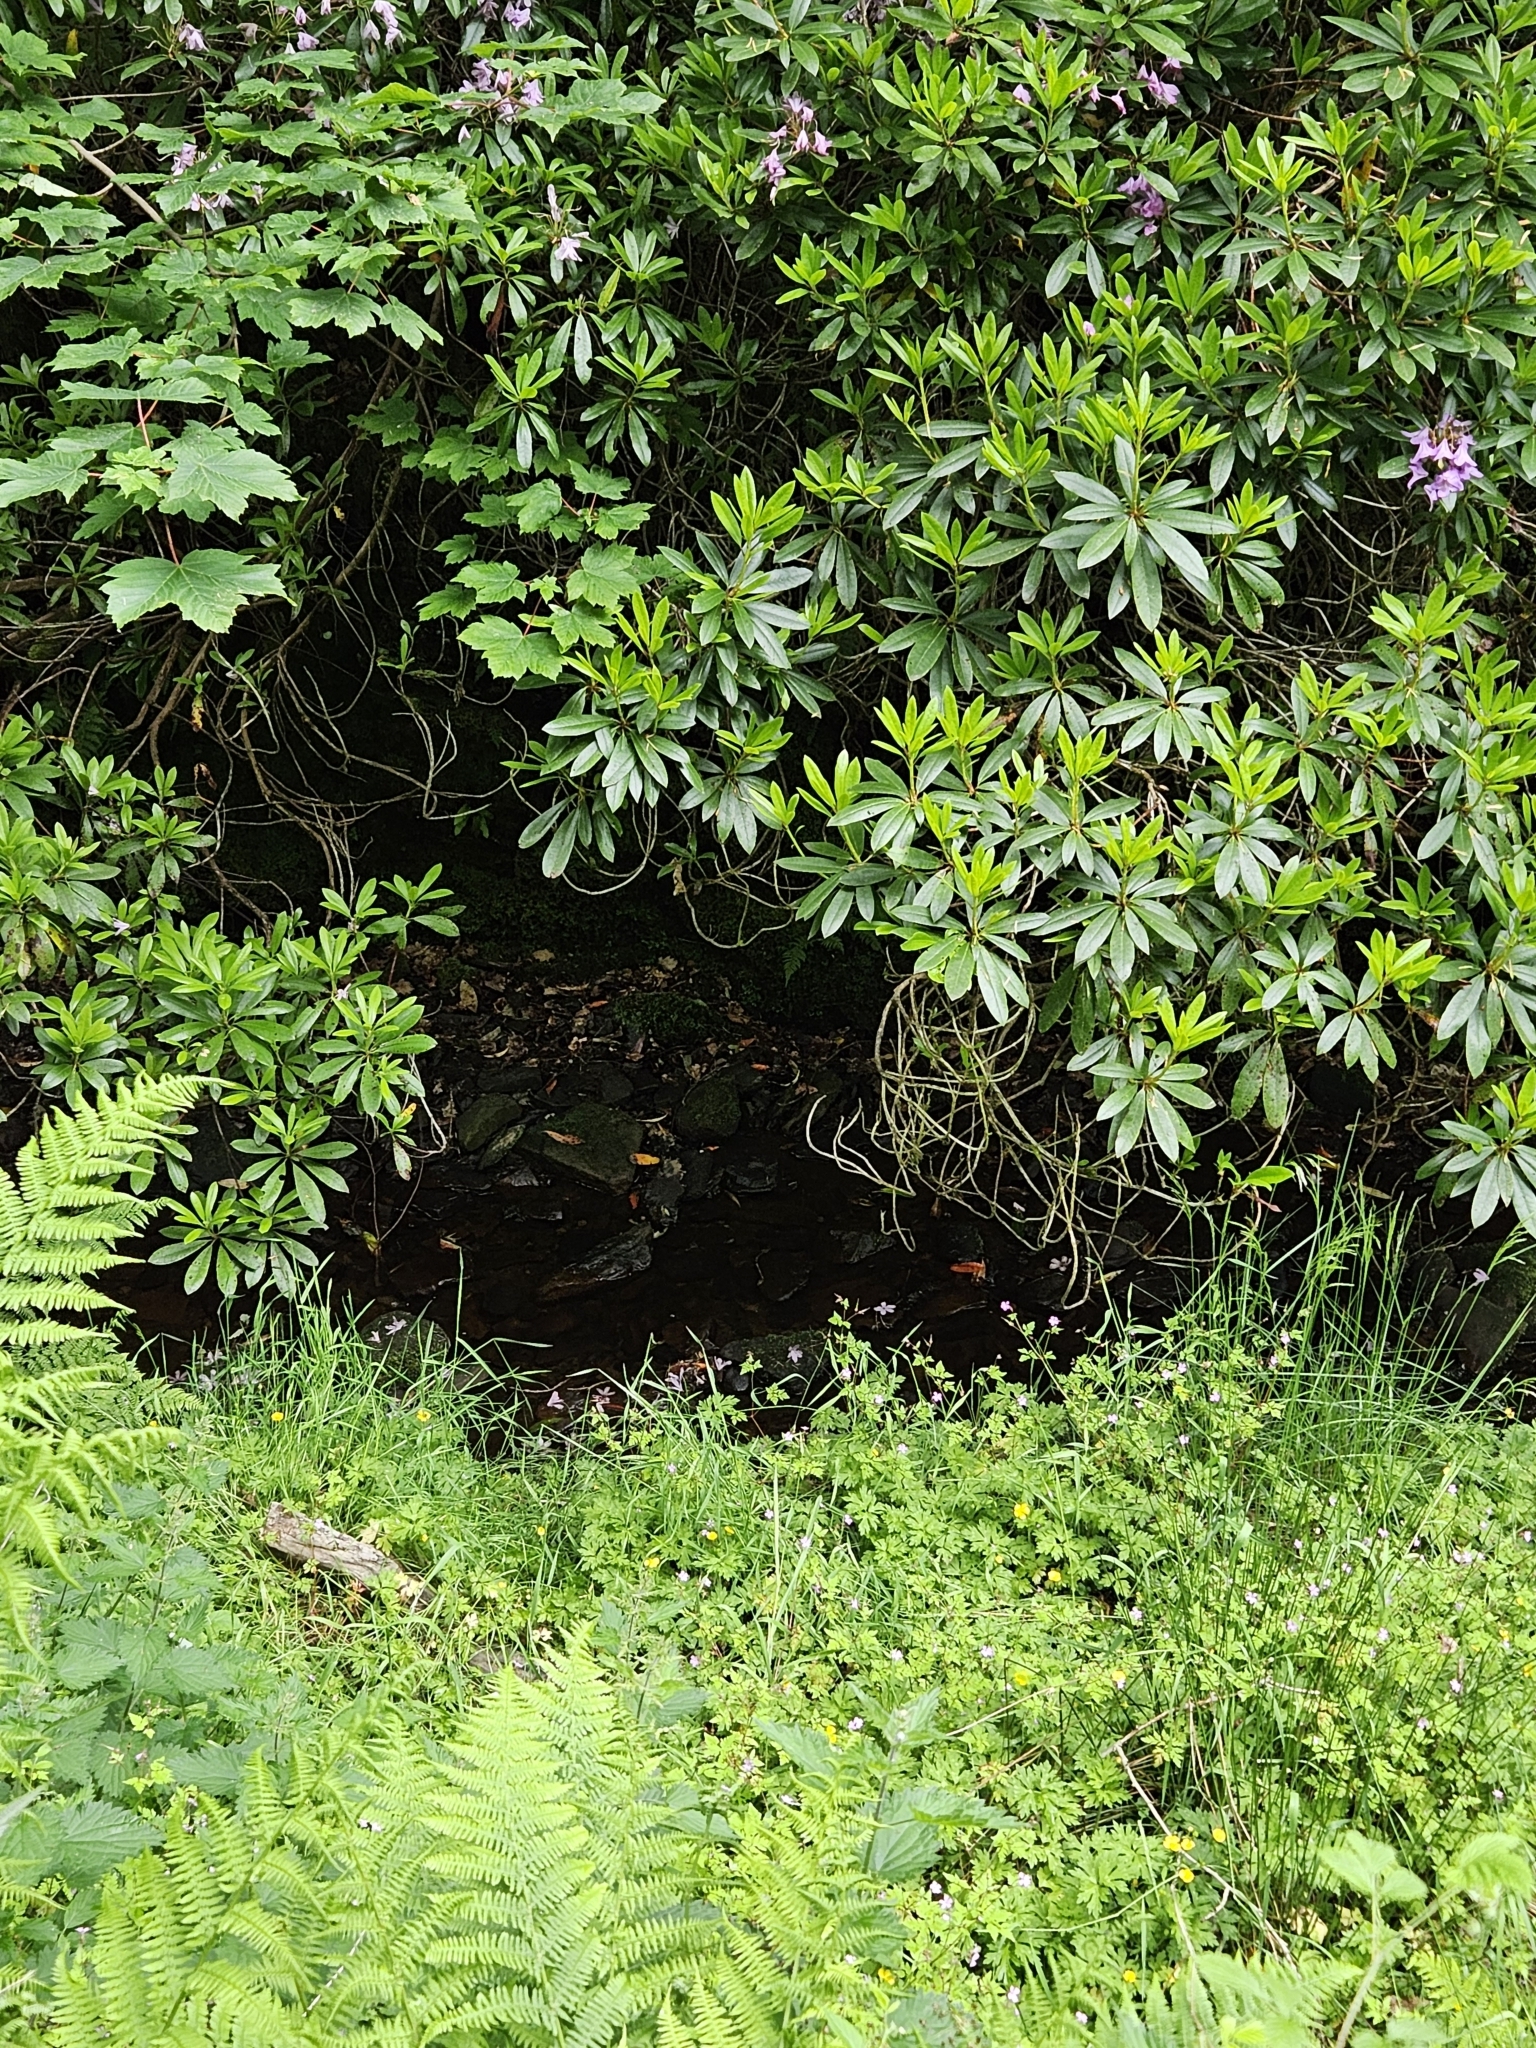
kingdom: Plantae
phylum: Bryophyta
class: Bryopsida
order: Bryales
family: Mniaceae
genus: Mnium
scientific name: Mnium stellare
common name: Star leafy moss
